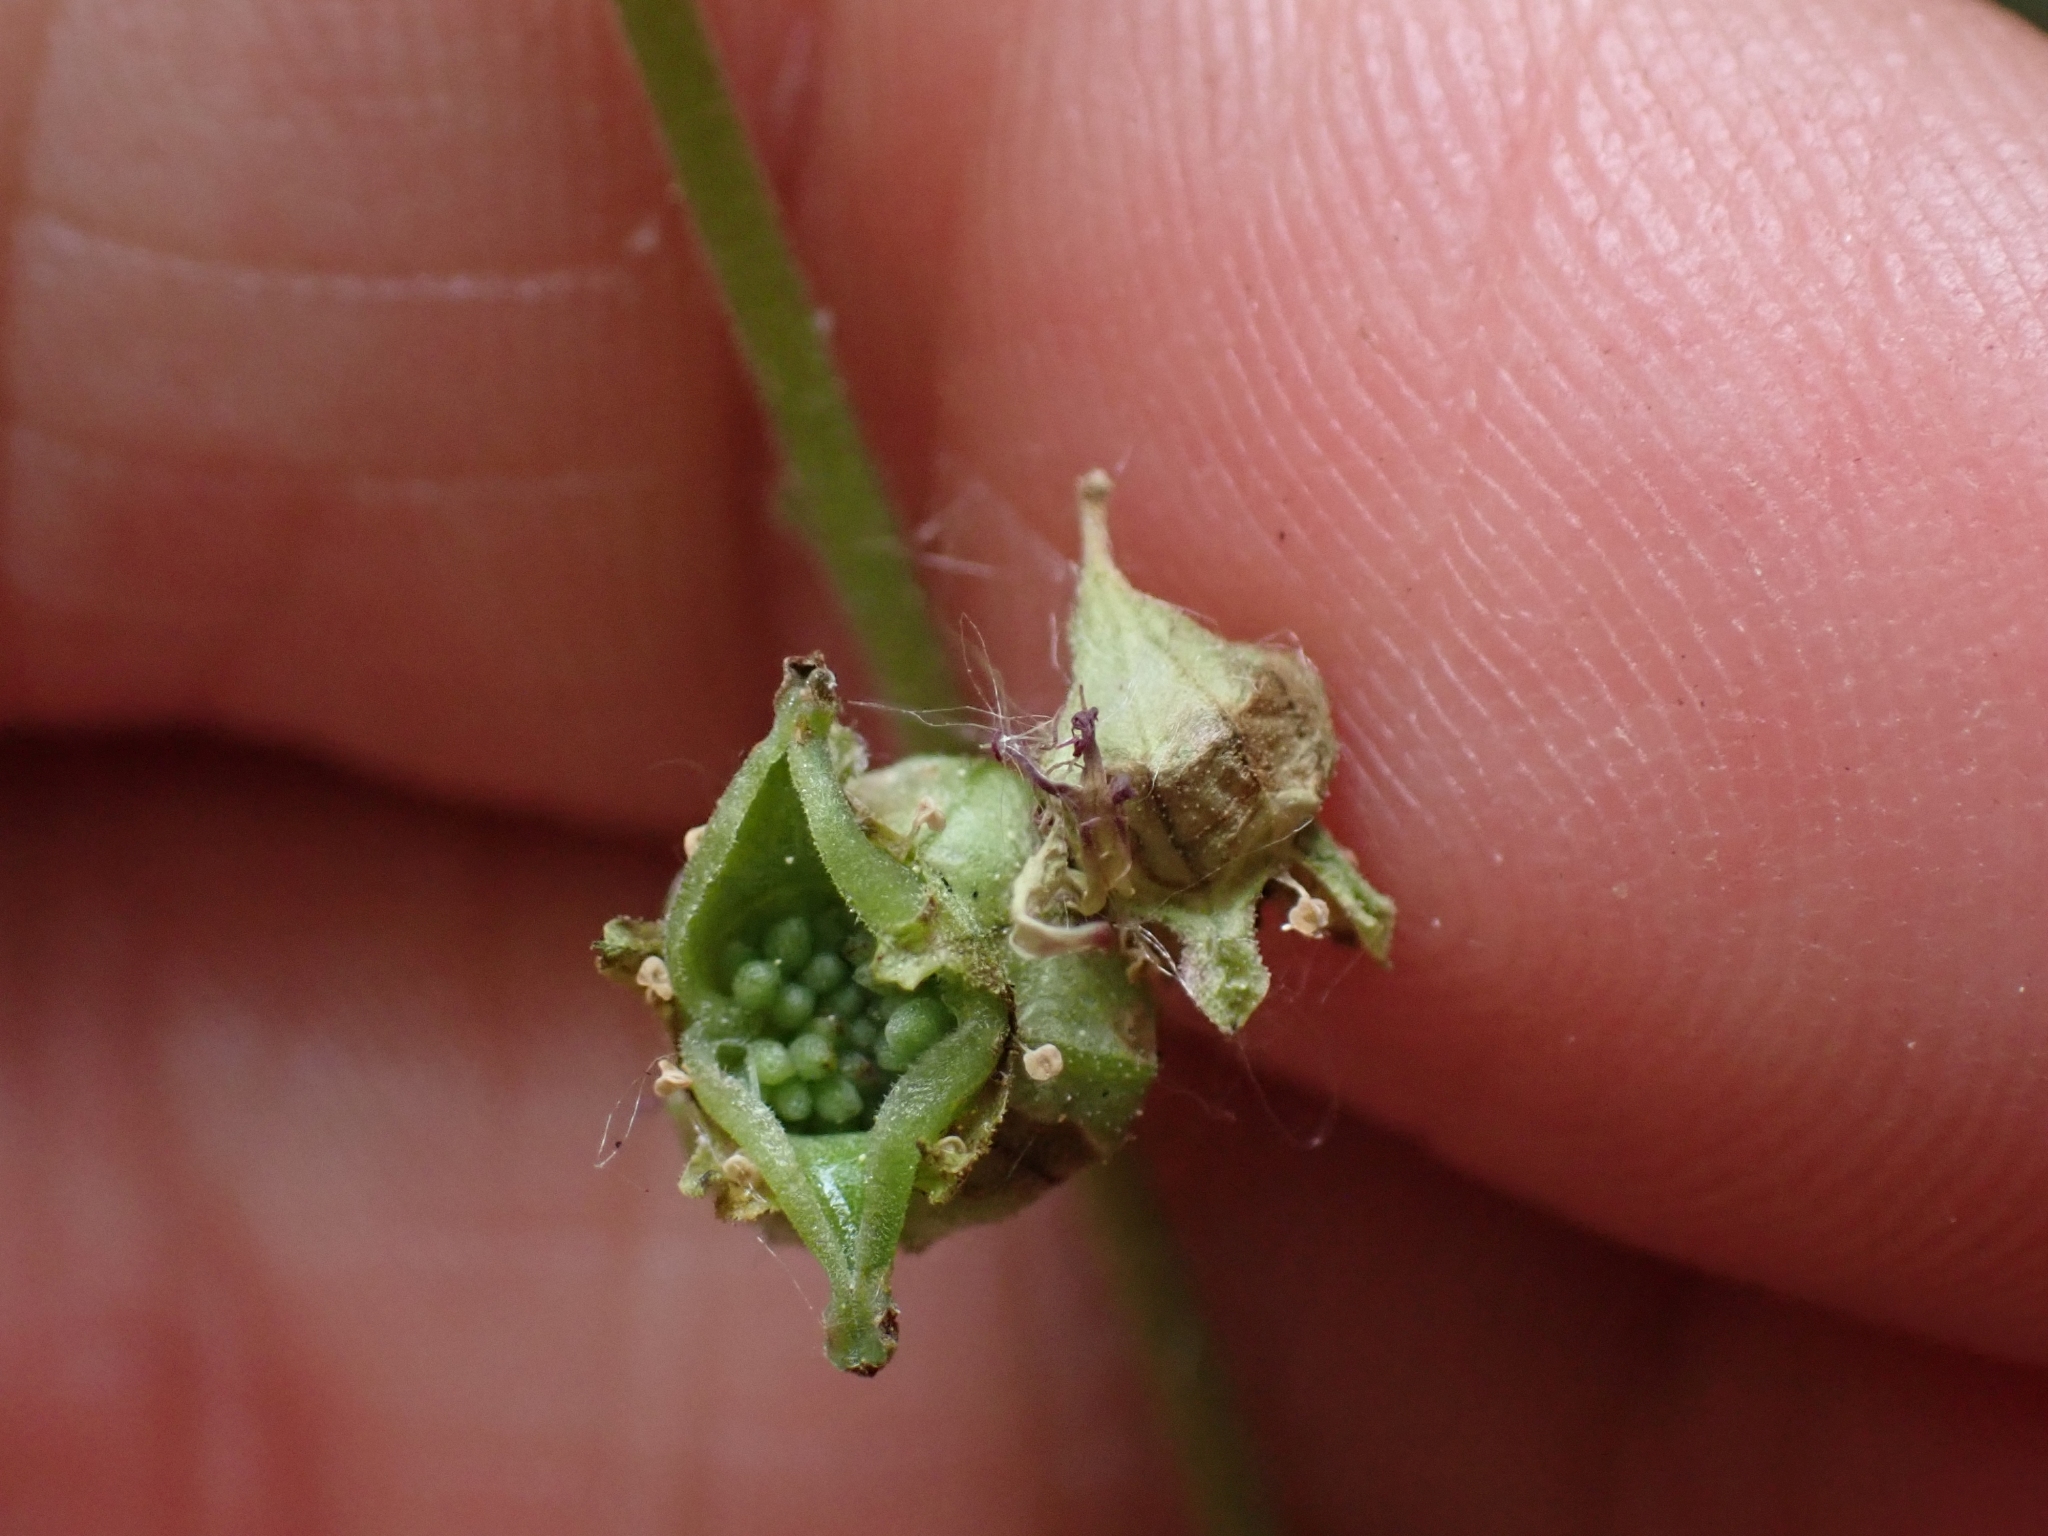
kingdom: Plantae
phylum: Tracheophyta
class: Magnoliopsida
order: Saxifragales
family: Saxifragaceae
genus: Tellima
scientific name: Tellima grandiflora
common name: Fringecups
